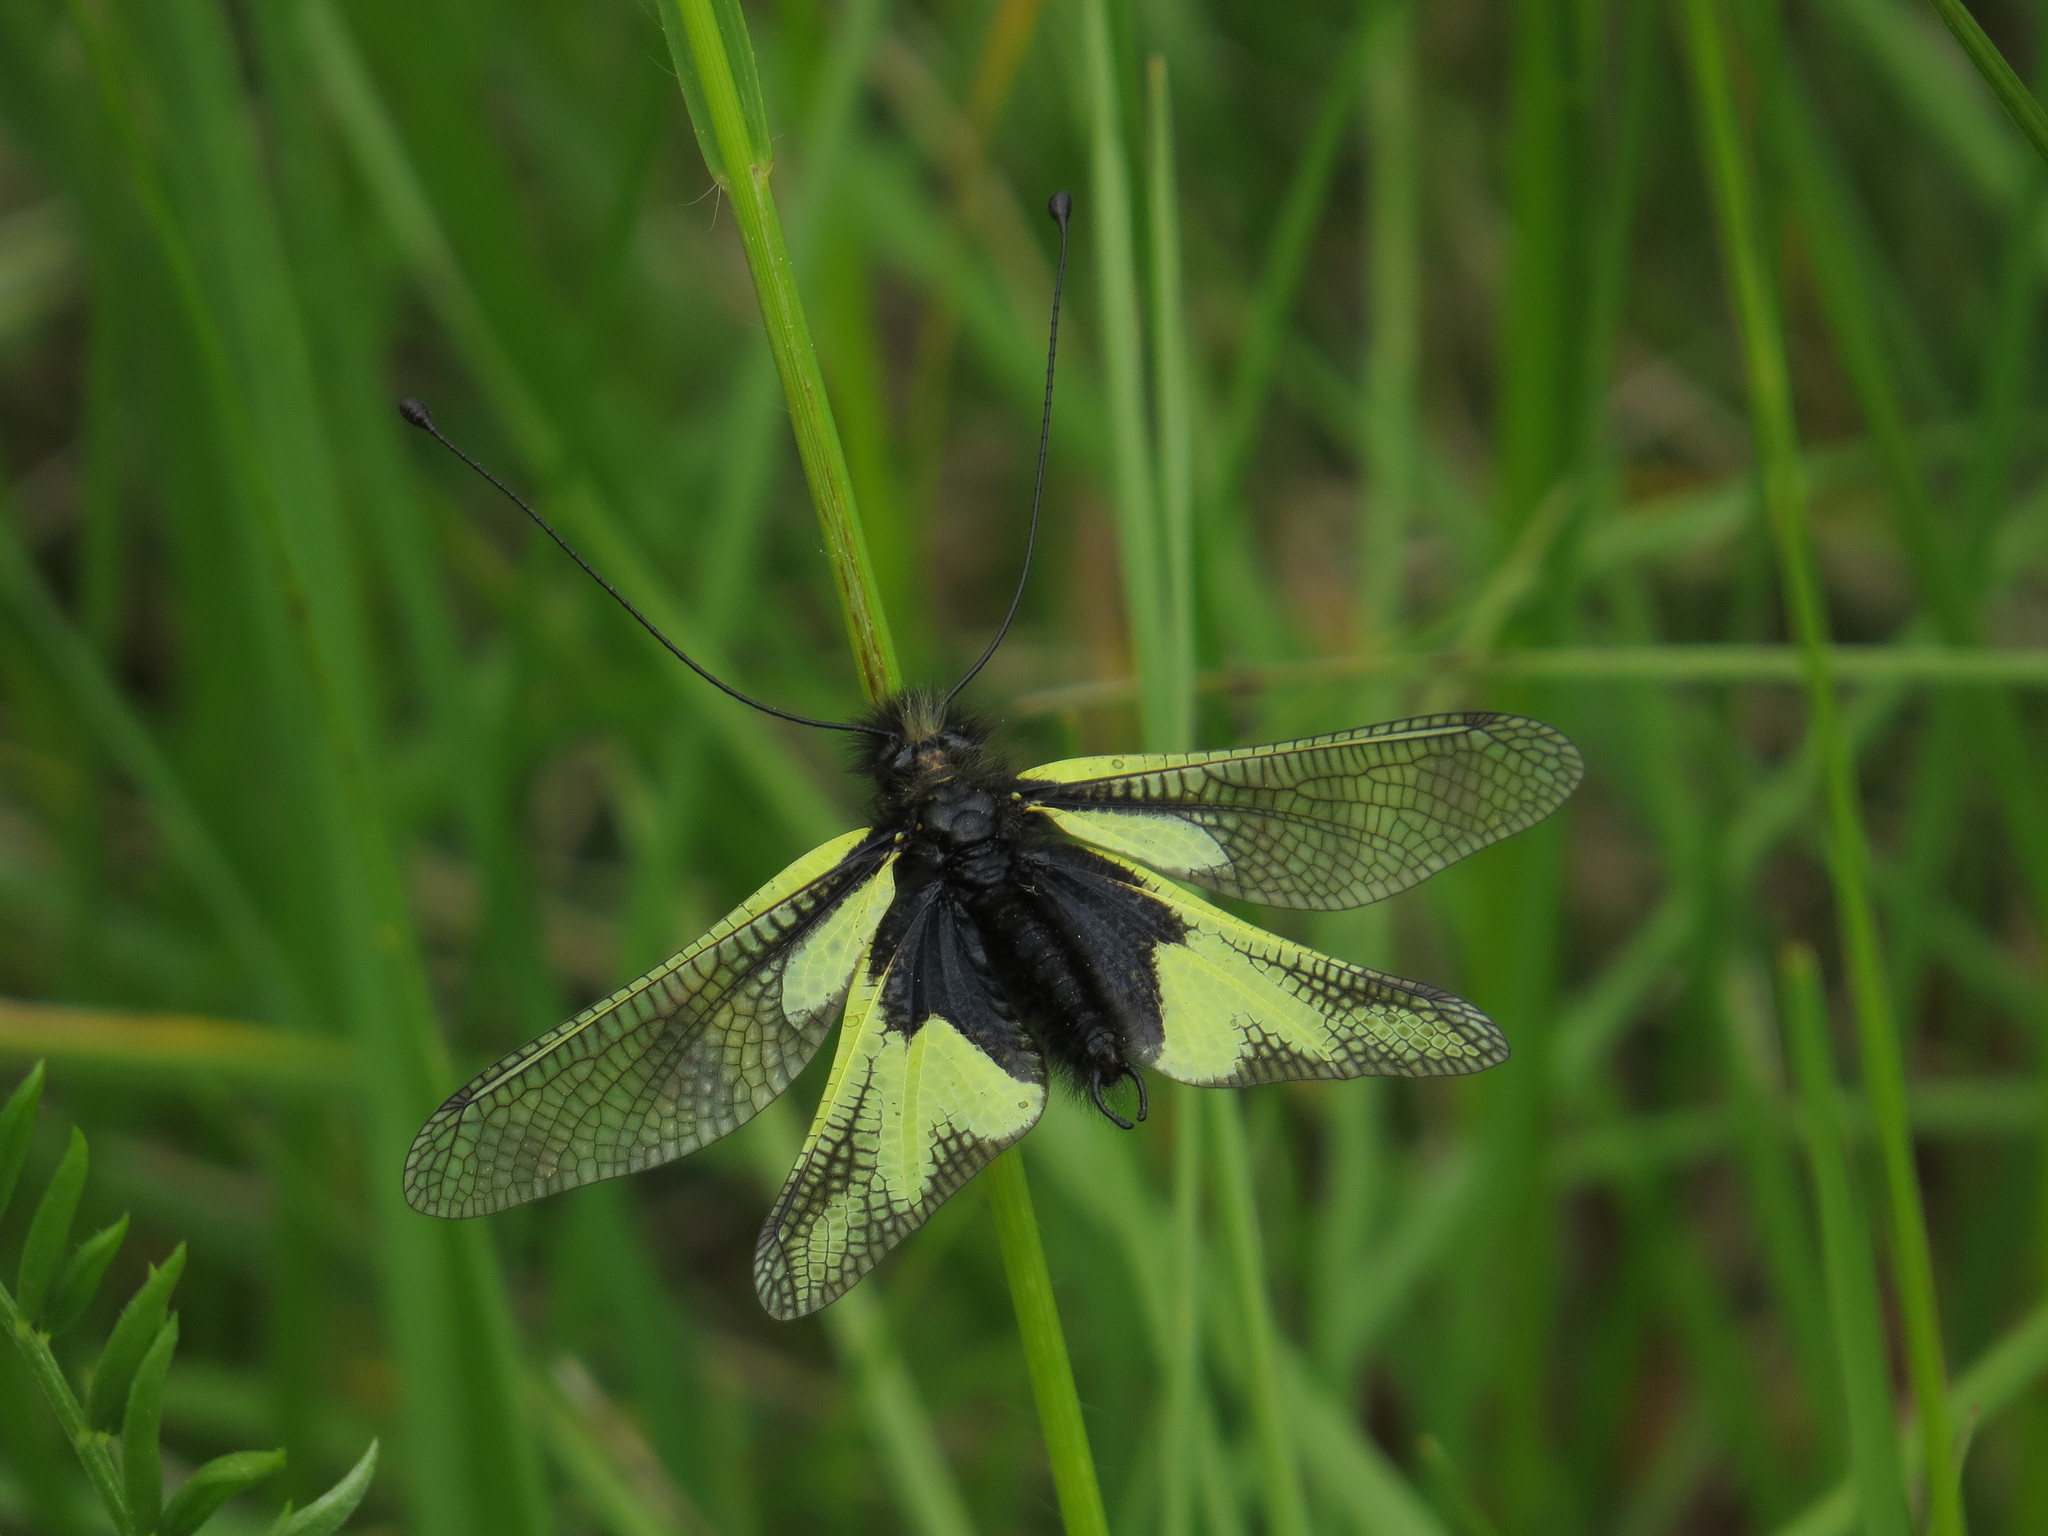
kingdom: Animalia
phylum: Arthropoda
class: Insecta
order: Neuroptera
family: Ascalaphidae
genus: Libelloides
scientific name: Libelloides coccajus
